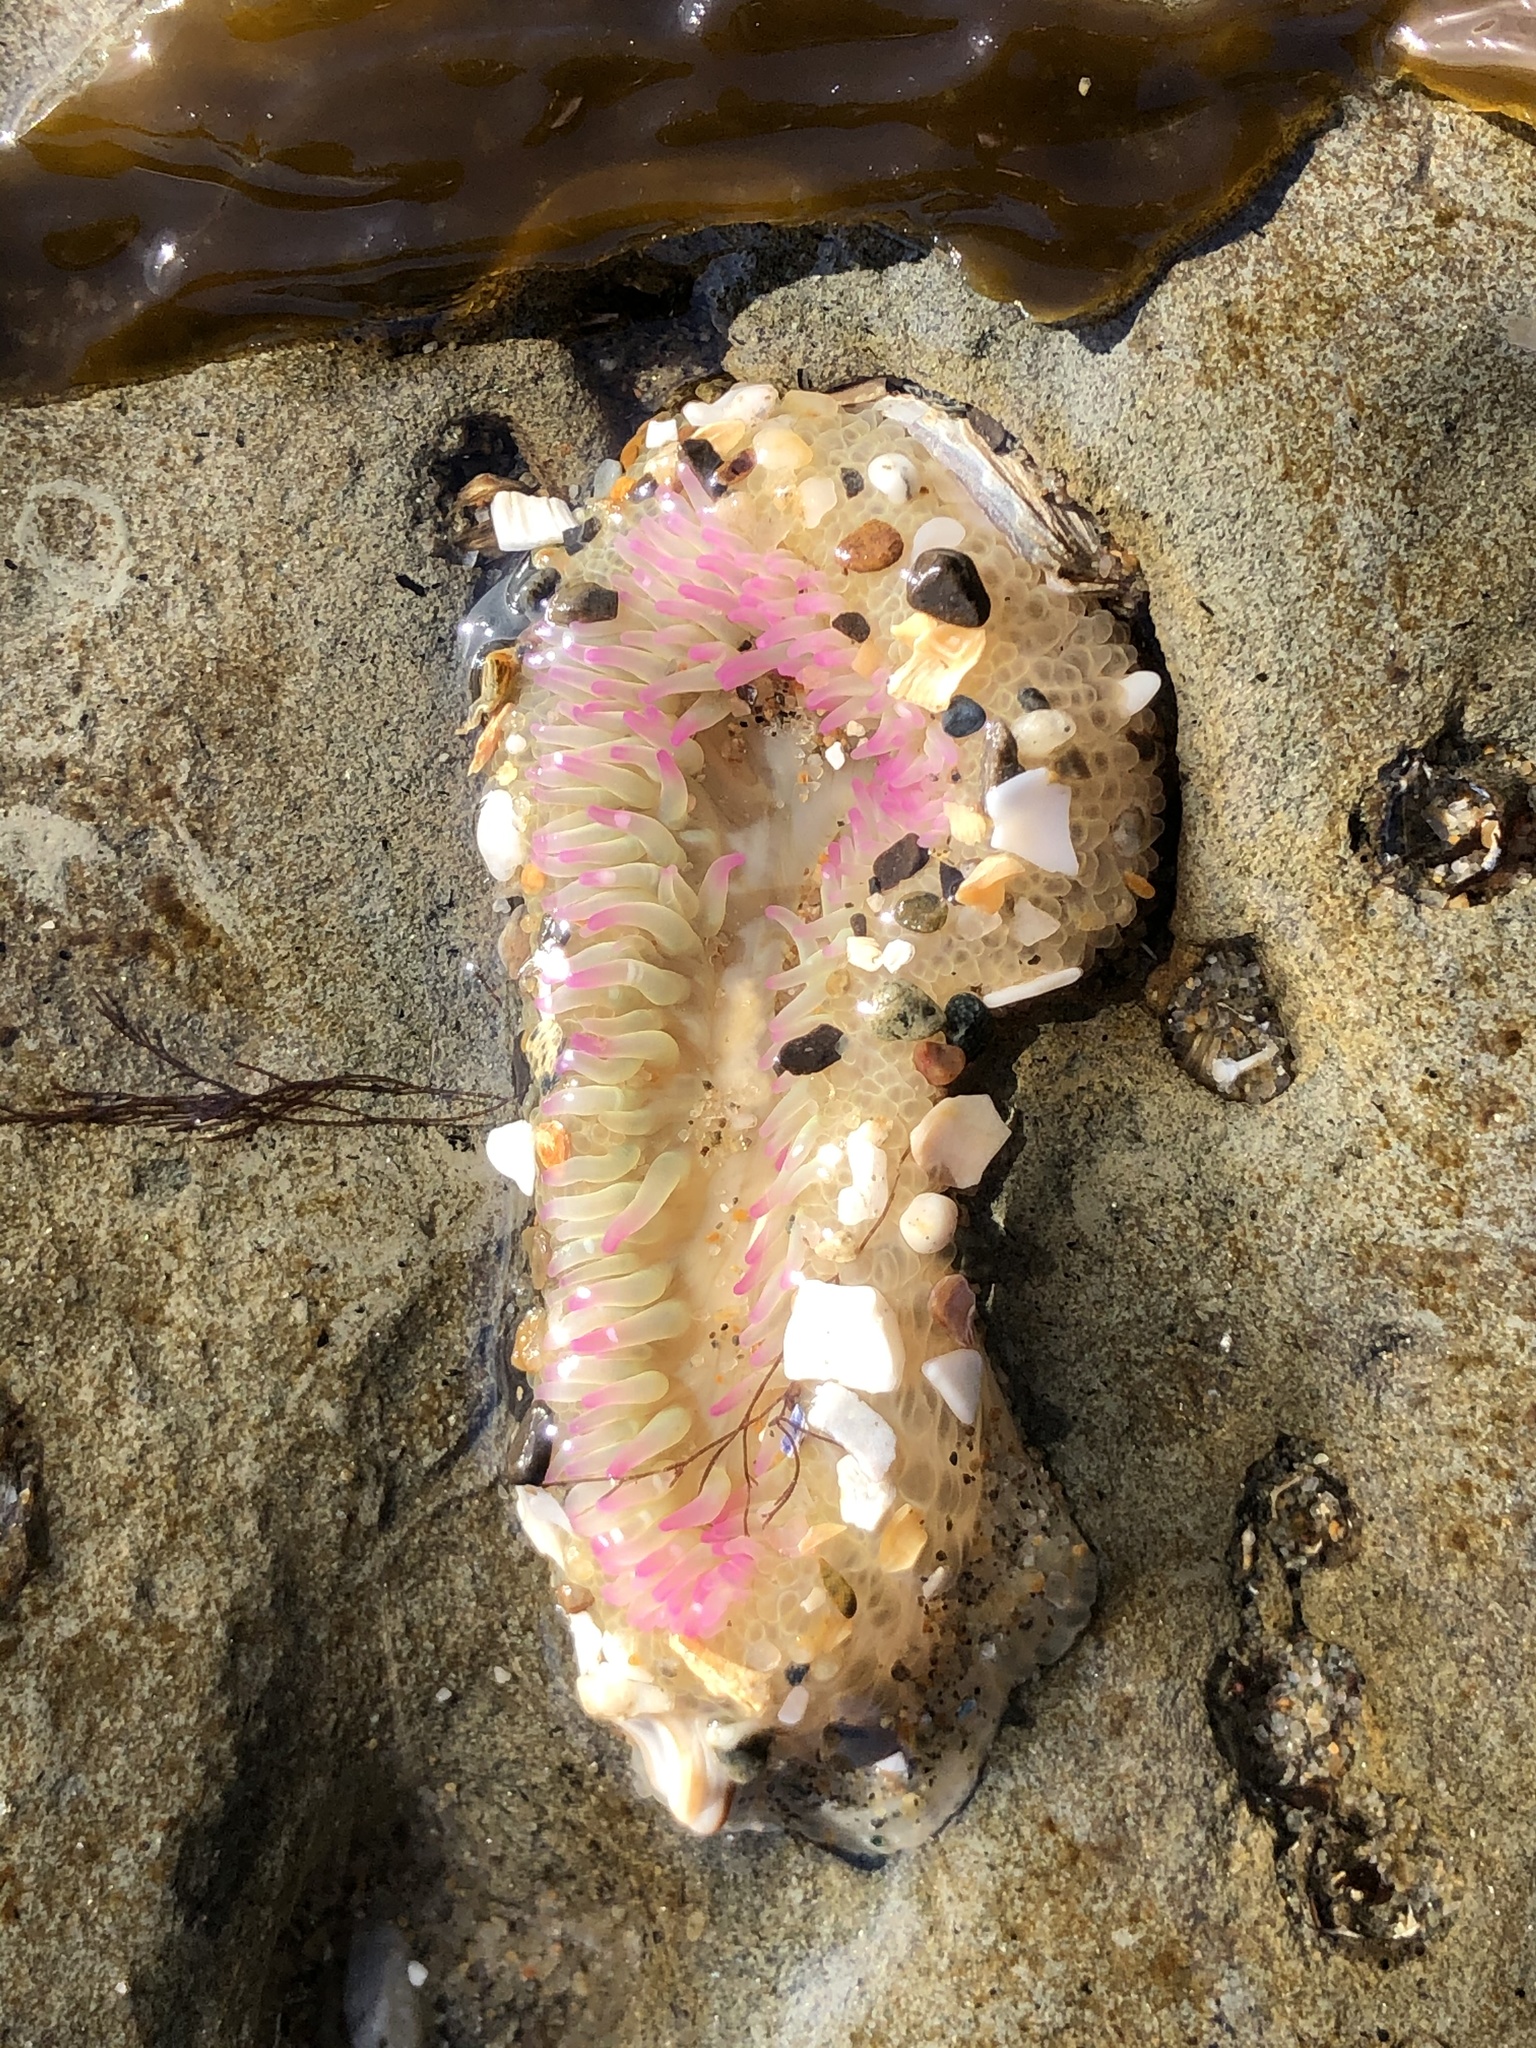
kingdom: Animalia
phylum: Cnidaria
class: Anthozoa
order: Actiniaria
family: Actiniidae
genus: Anthopleura
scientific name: Anthopleura elegantissima
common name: Clonal anemone
